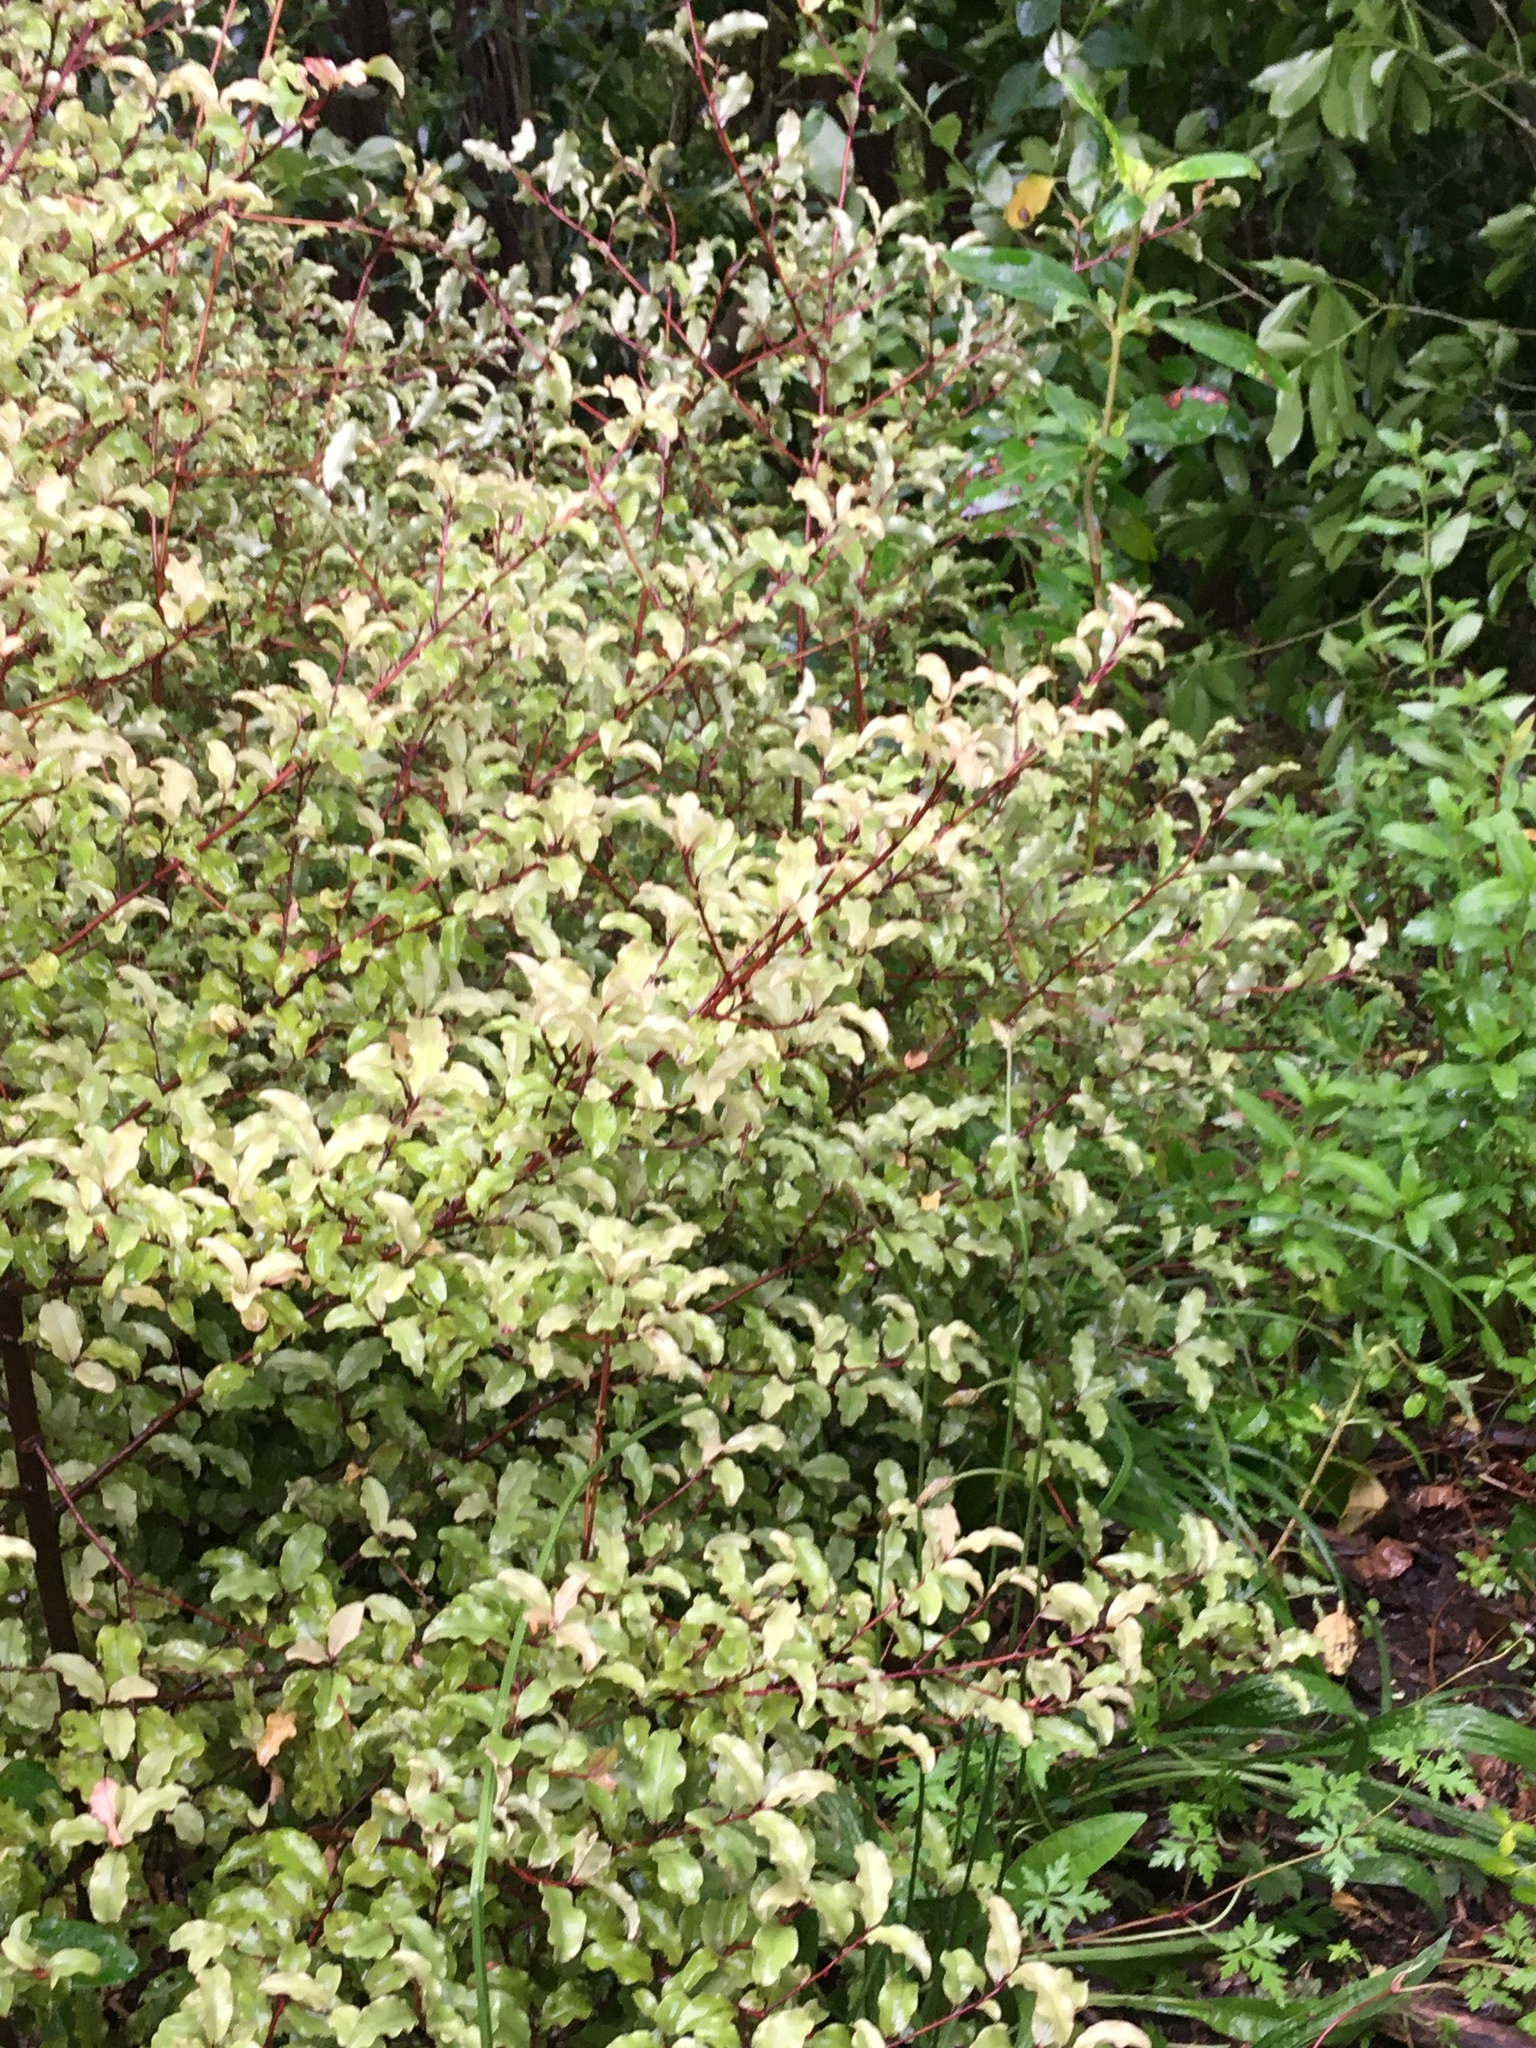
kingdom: Plantae
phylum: Tracheophyta
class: Magnoliopsida
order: Ericales
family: Primulaceae
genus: Myrsine
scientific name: Myrsine australis
